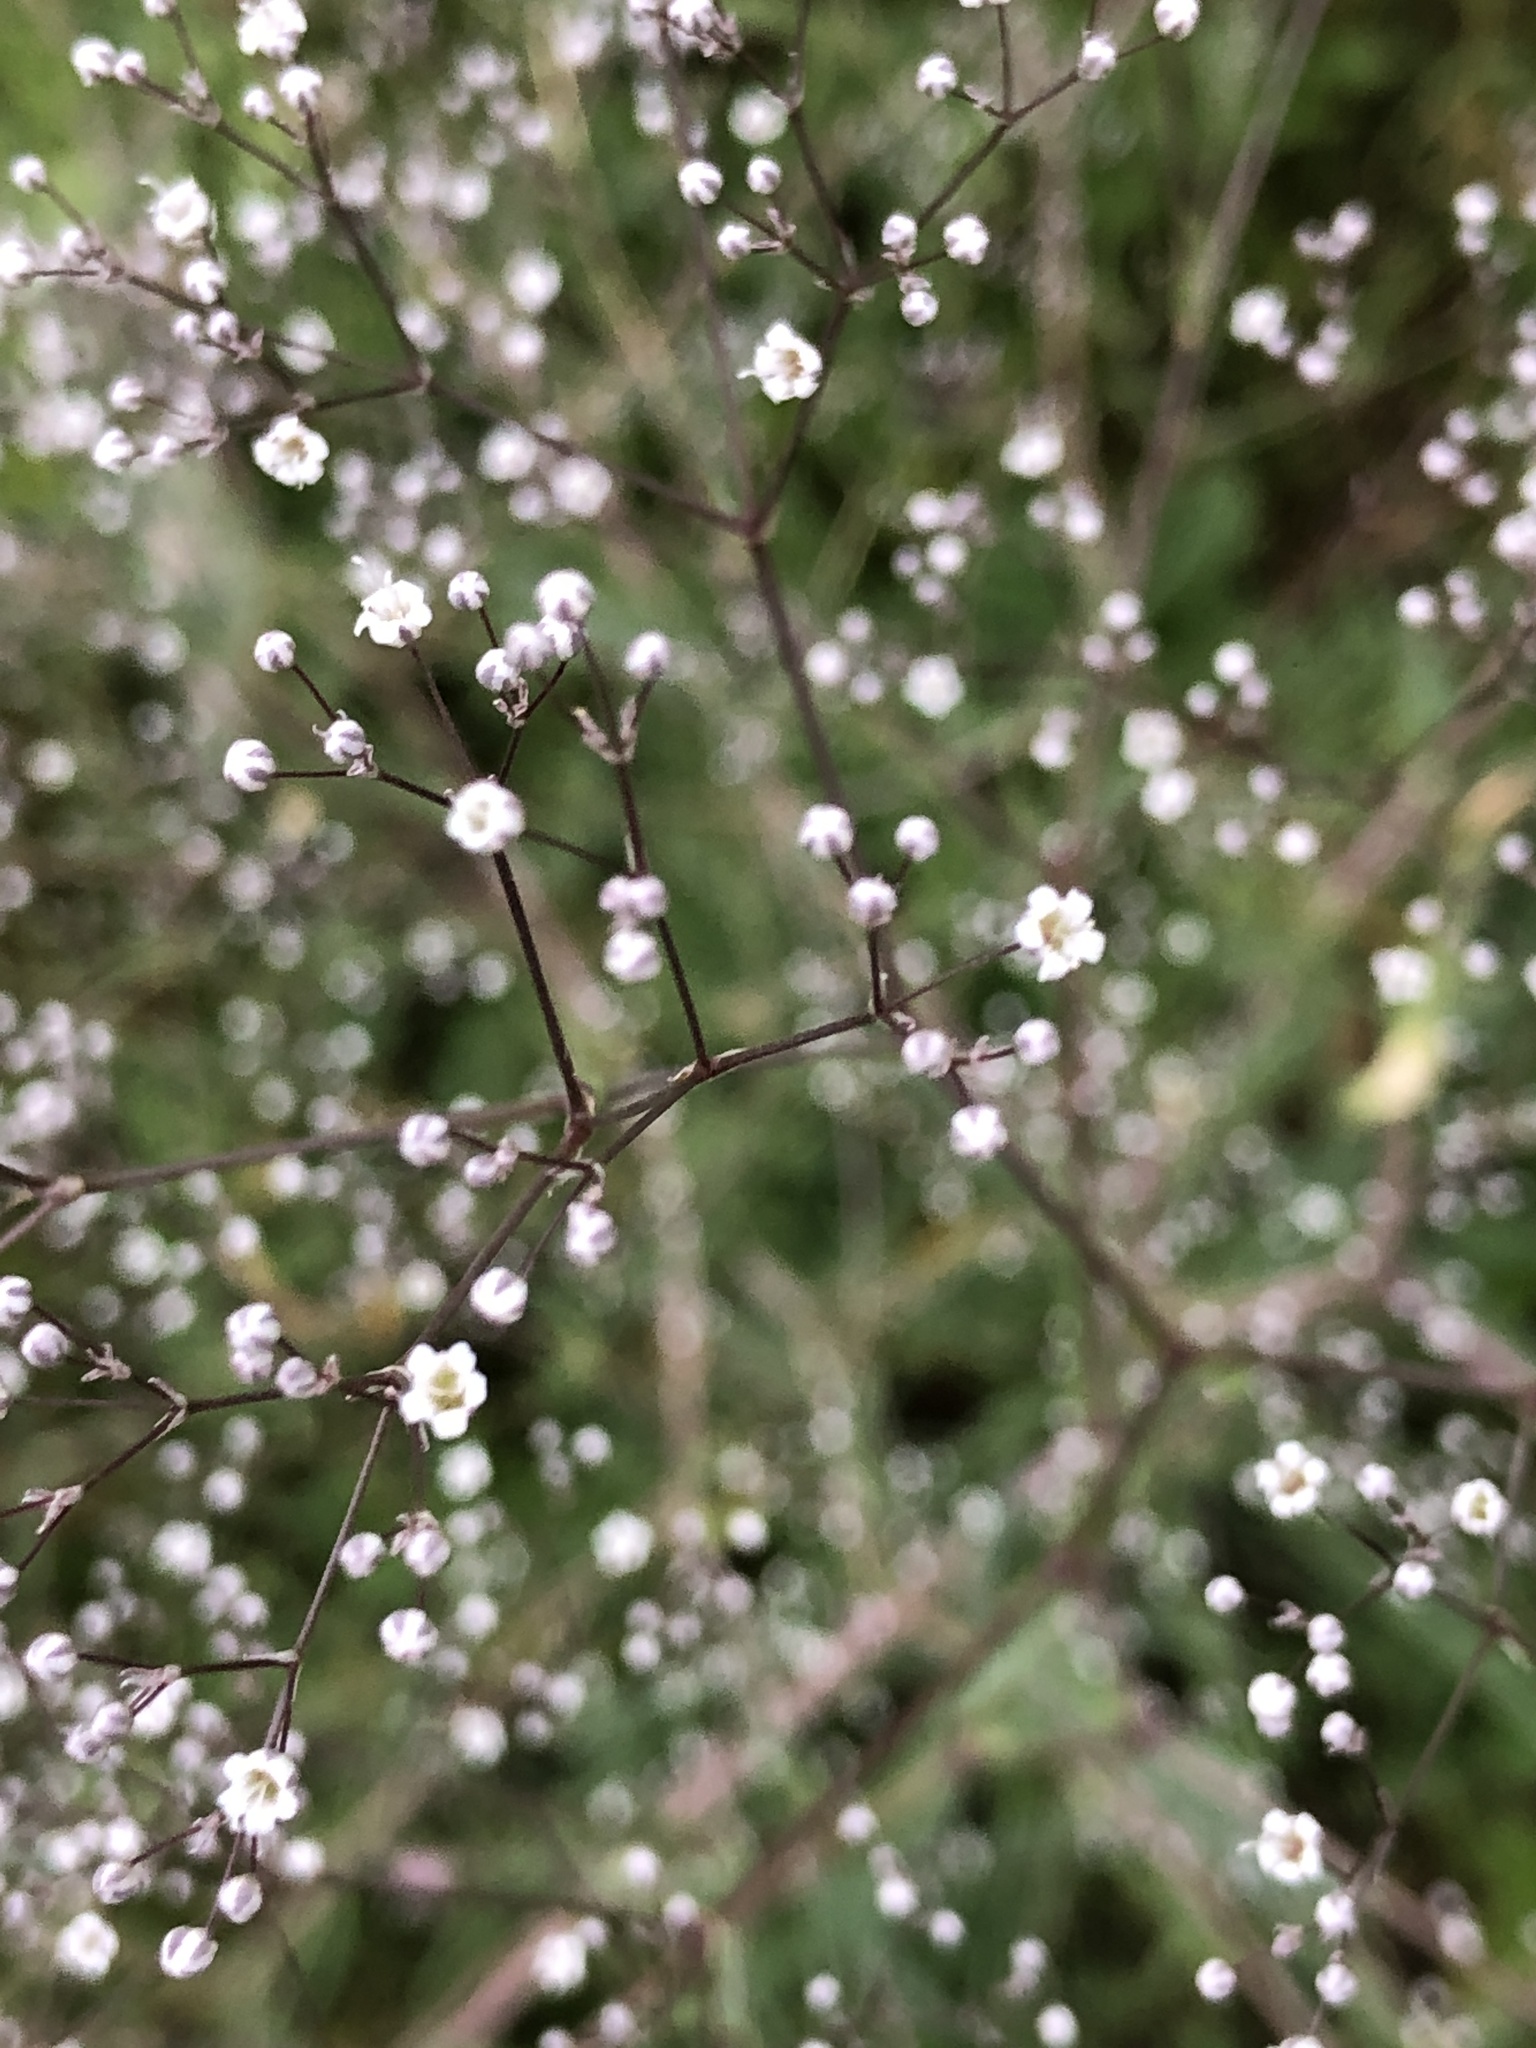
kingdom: Plantae
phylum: Tracheophyta
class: Magnoliopsida
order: Caryophyllales
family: Caryophyllaceae
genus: Gypsophila
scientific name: Gypsophila paniculata
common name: Baby's-breath
